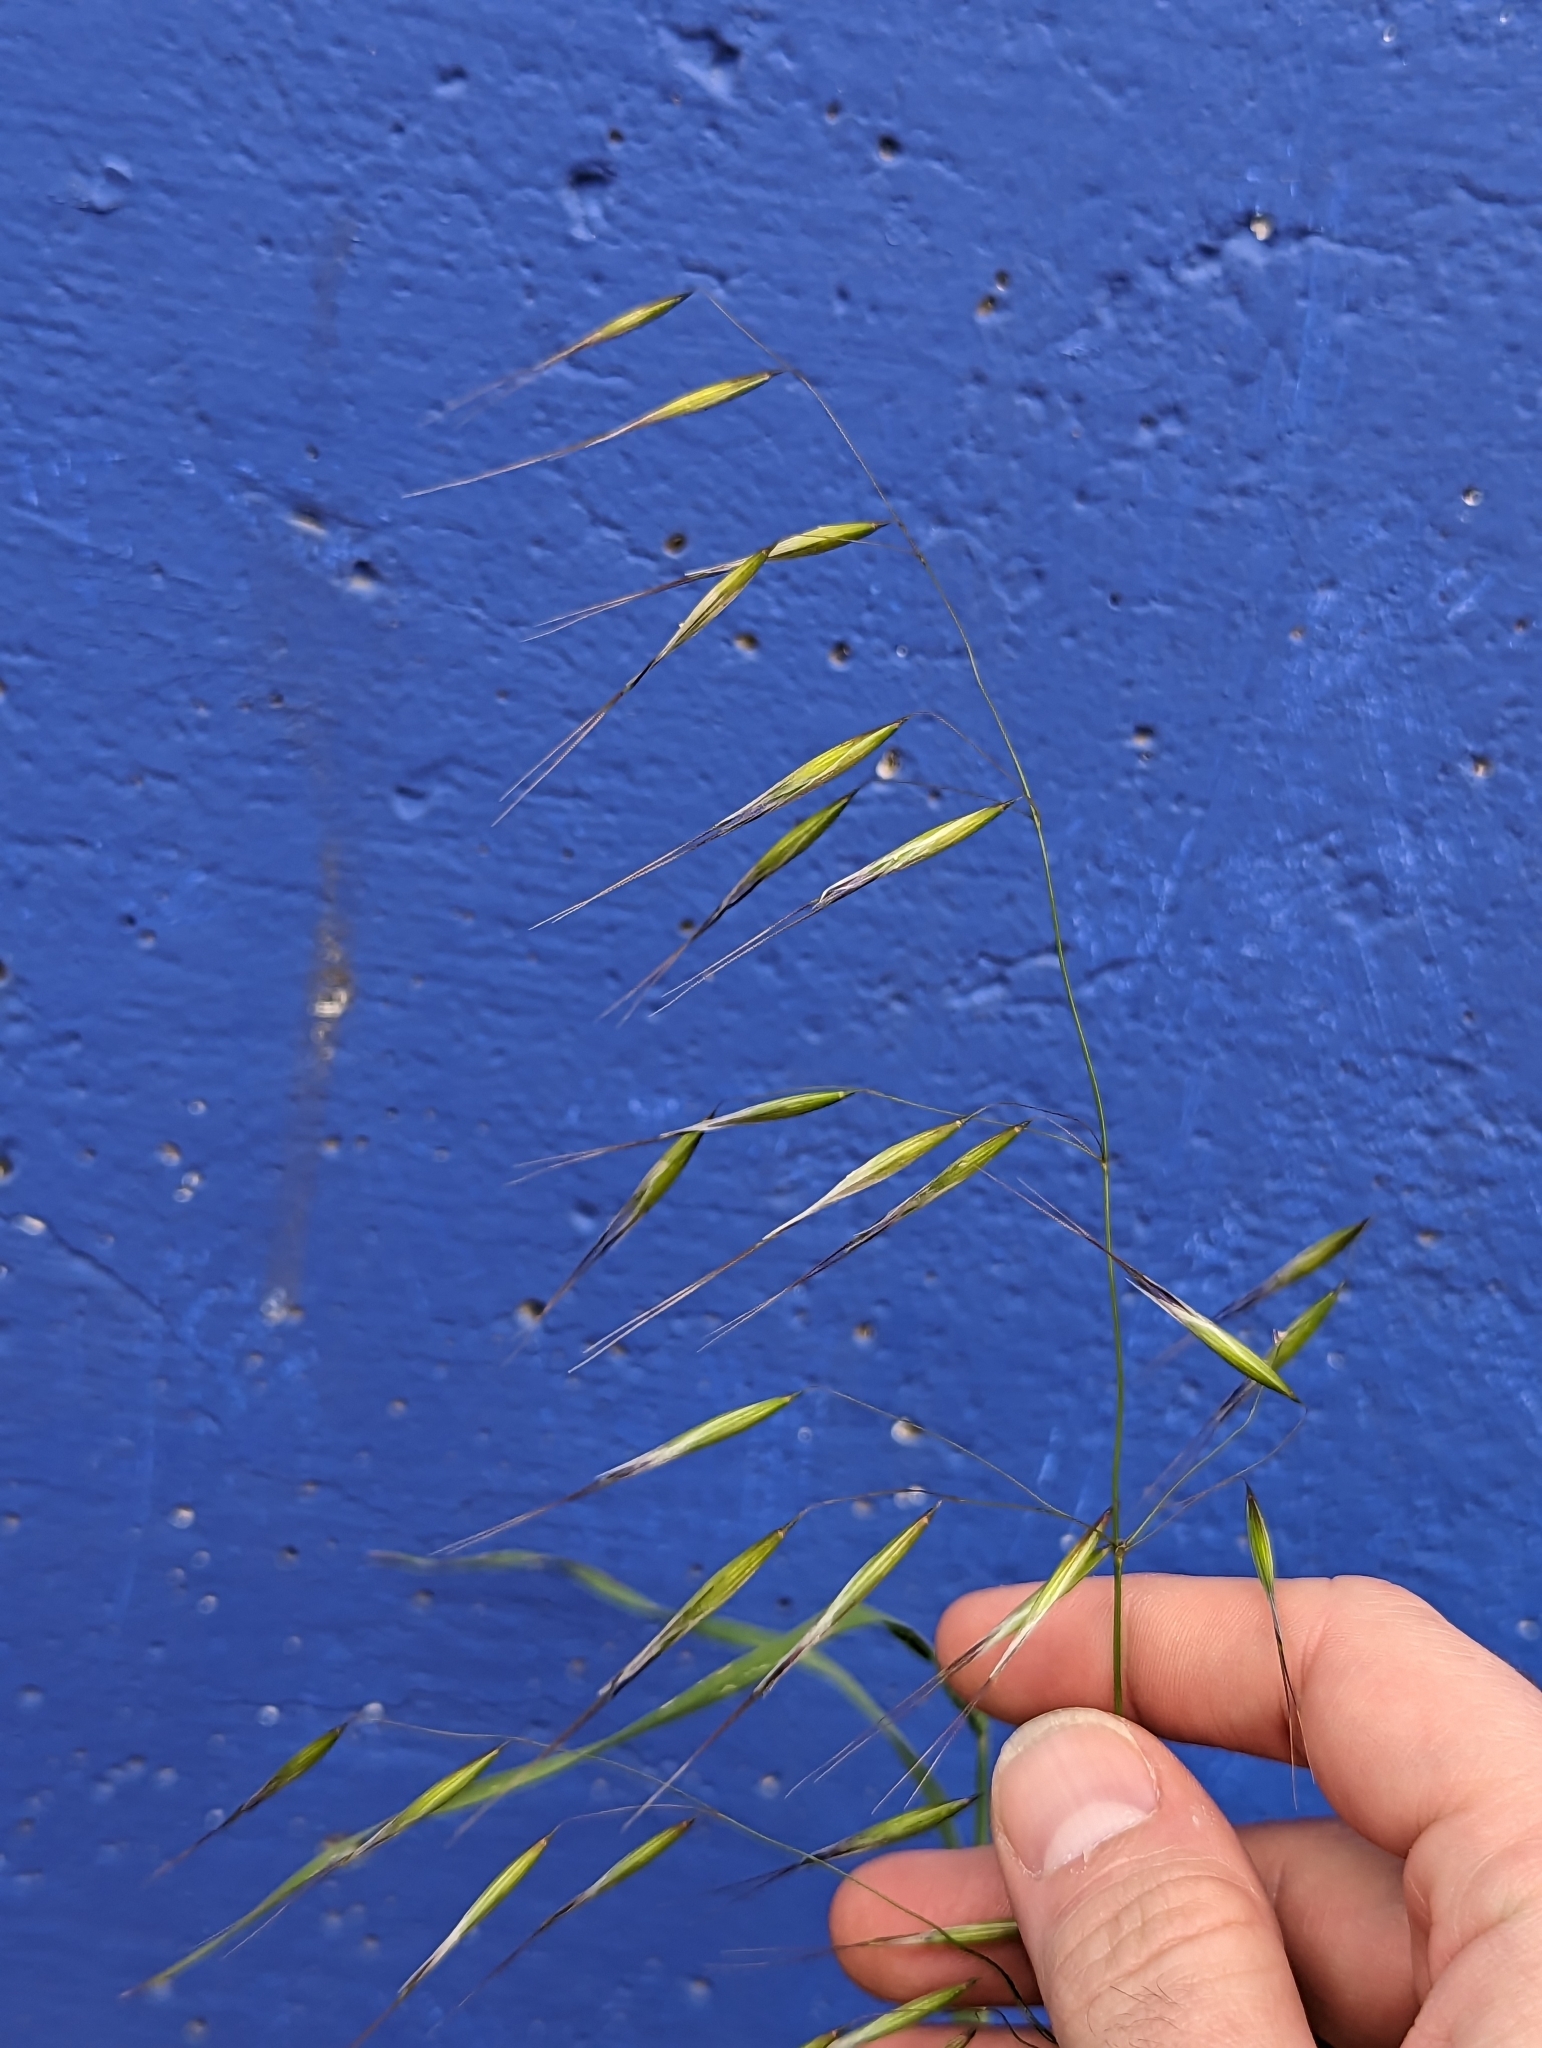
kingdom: Plantae
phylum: Tracheophyta
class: Liliopsida
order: Poales
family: Poaceae
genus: Avena
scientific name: Avena barbata
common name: Slender oat
